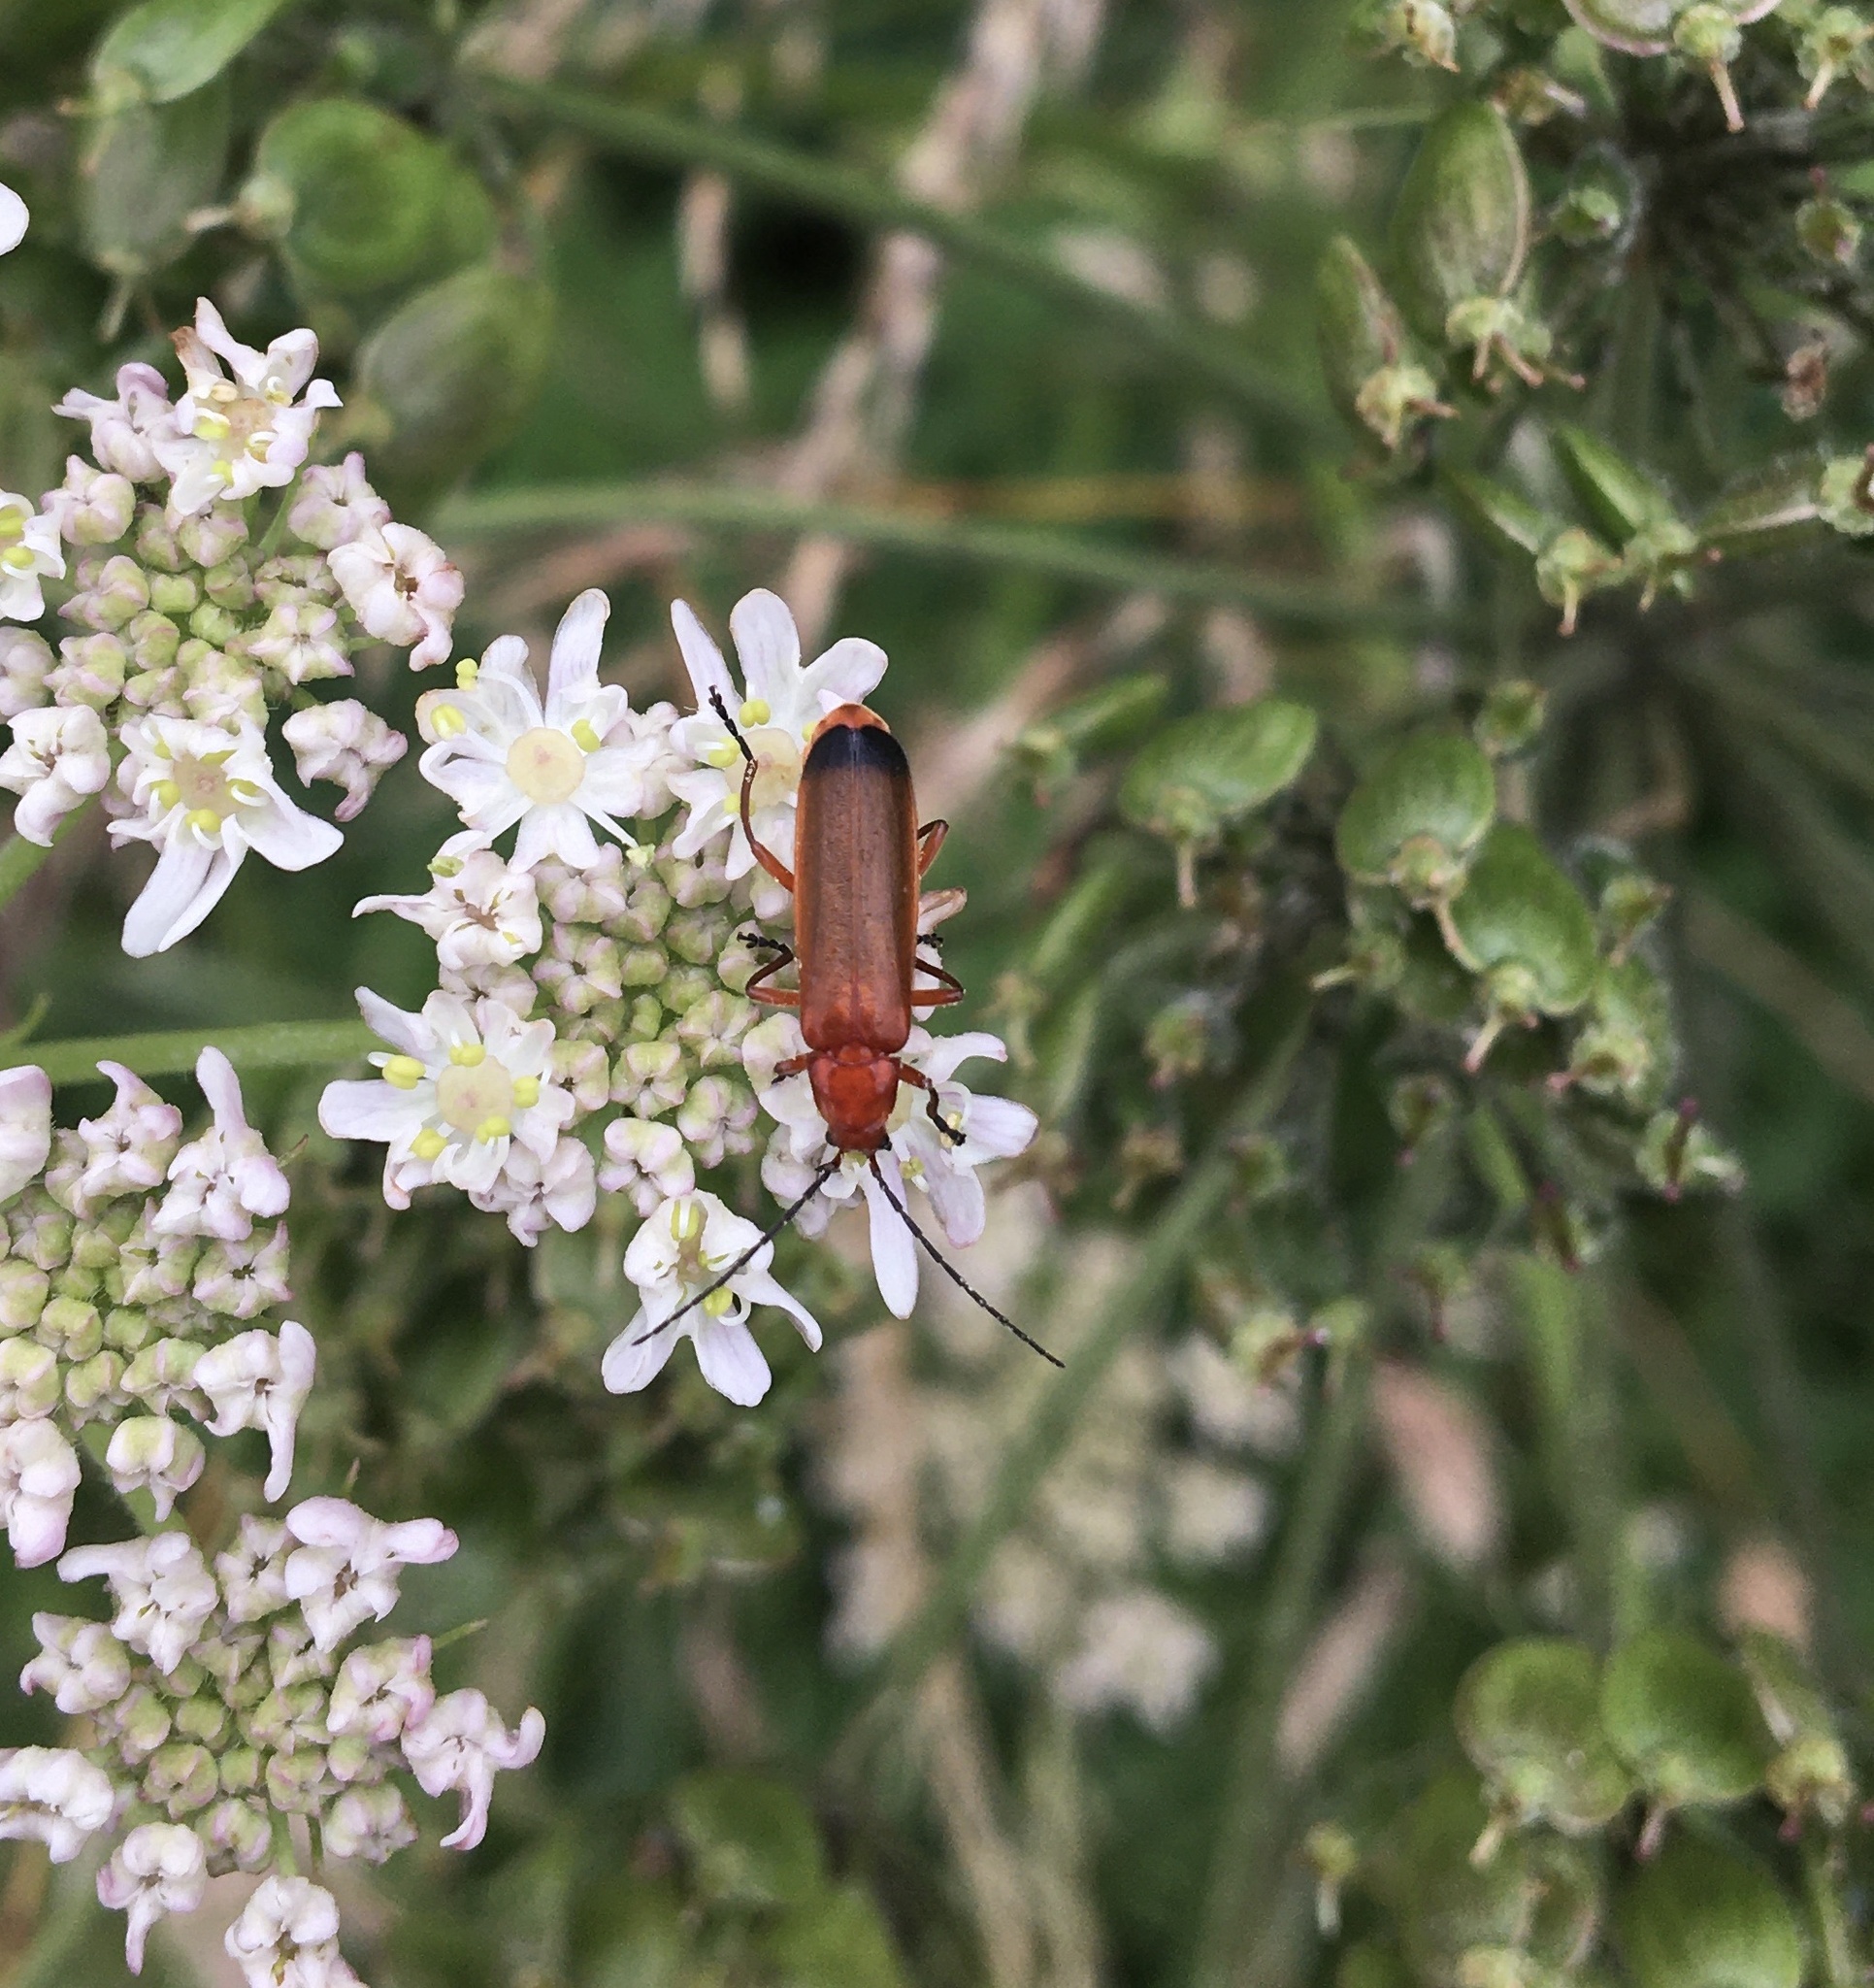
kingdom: Animalia
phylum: Arthropoda
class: Insecta
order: Coleoptera
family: Cantharidae
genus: Rhagonycha
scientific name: Rhagonycha fulva
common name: Common red soldier beetle
